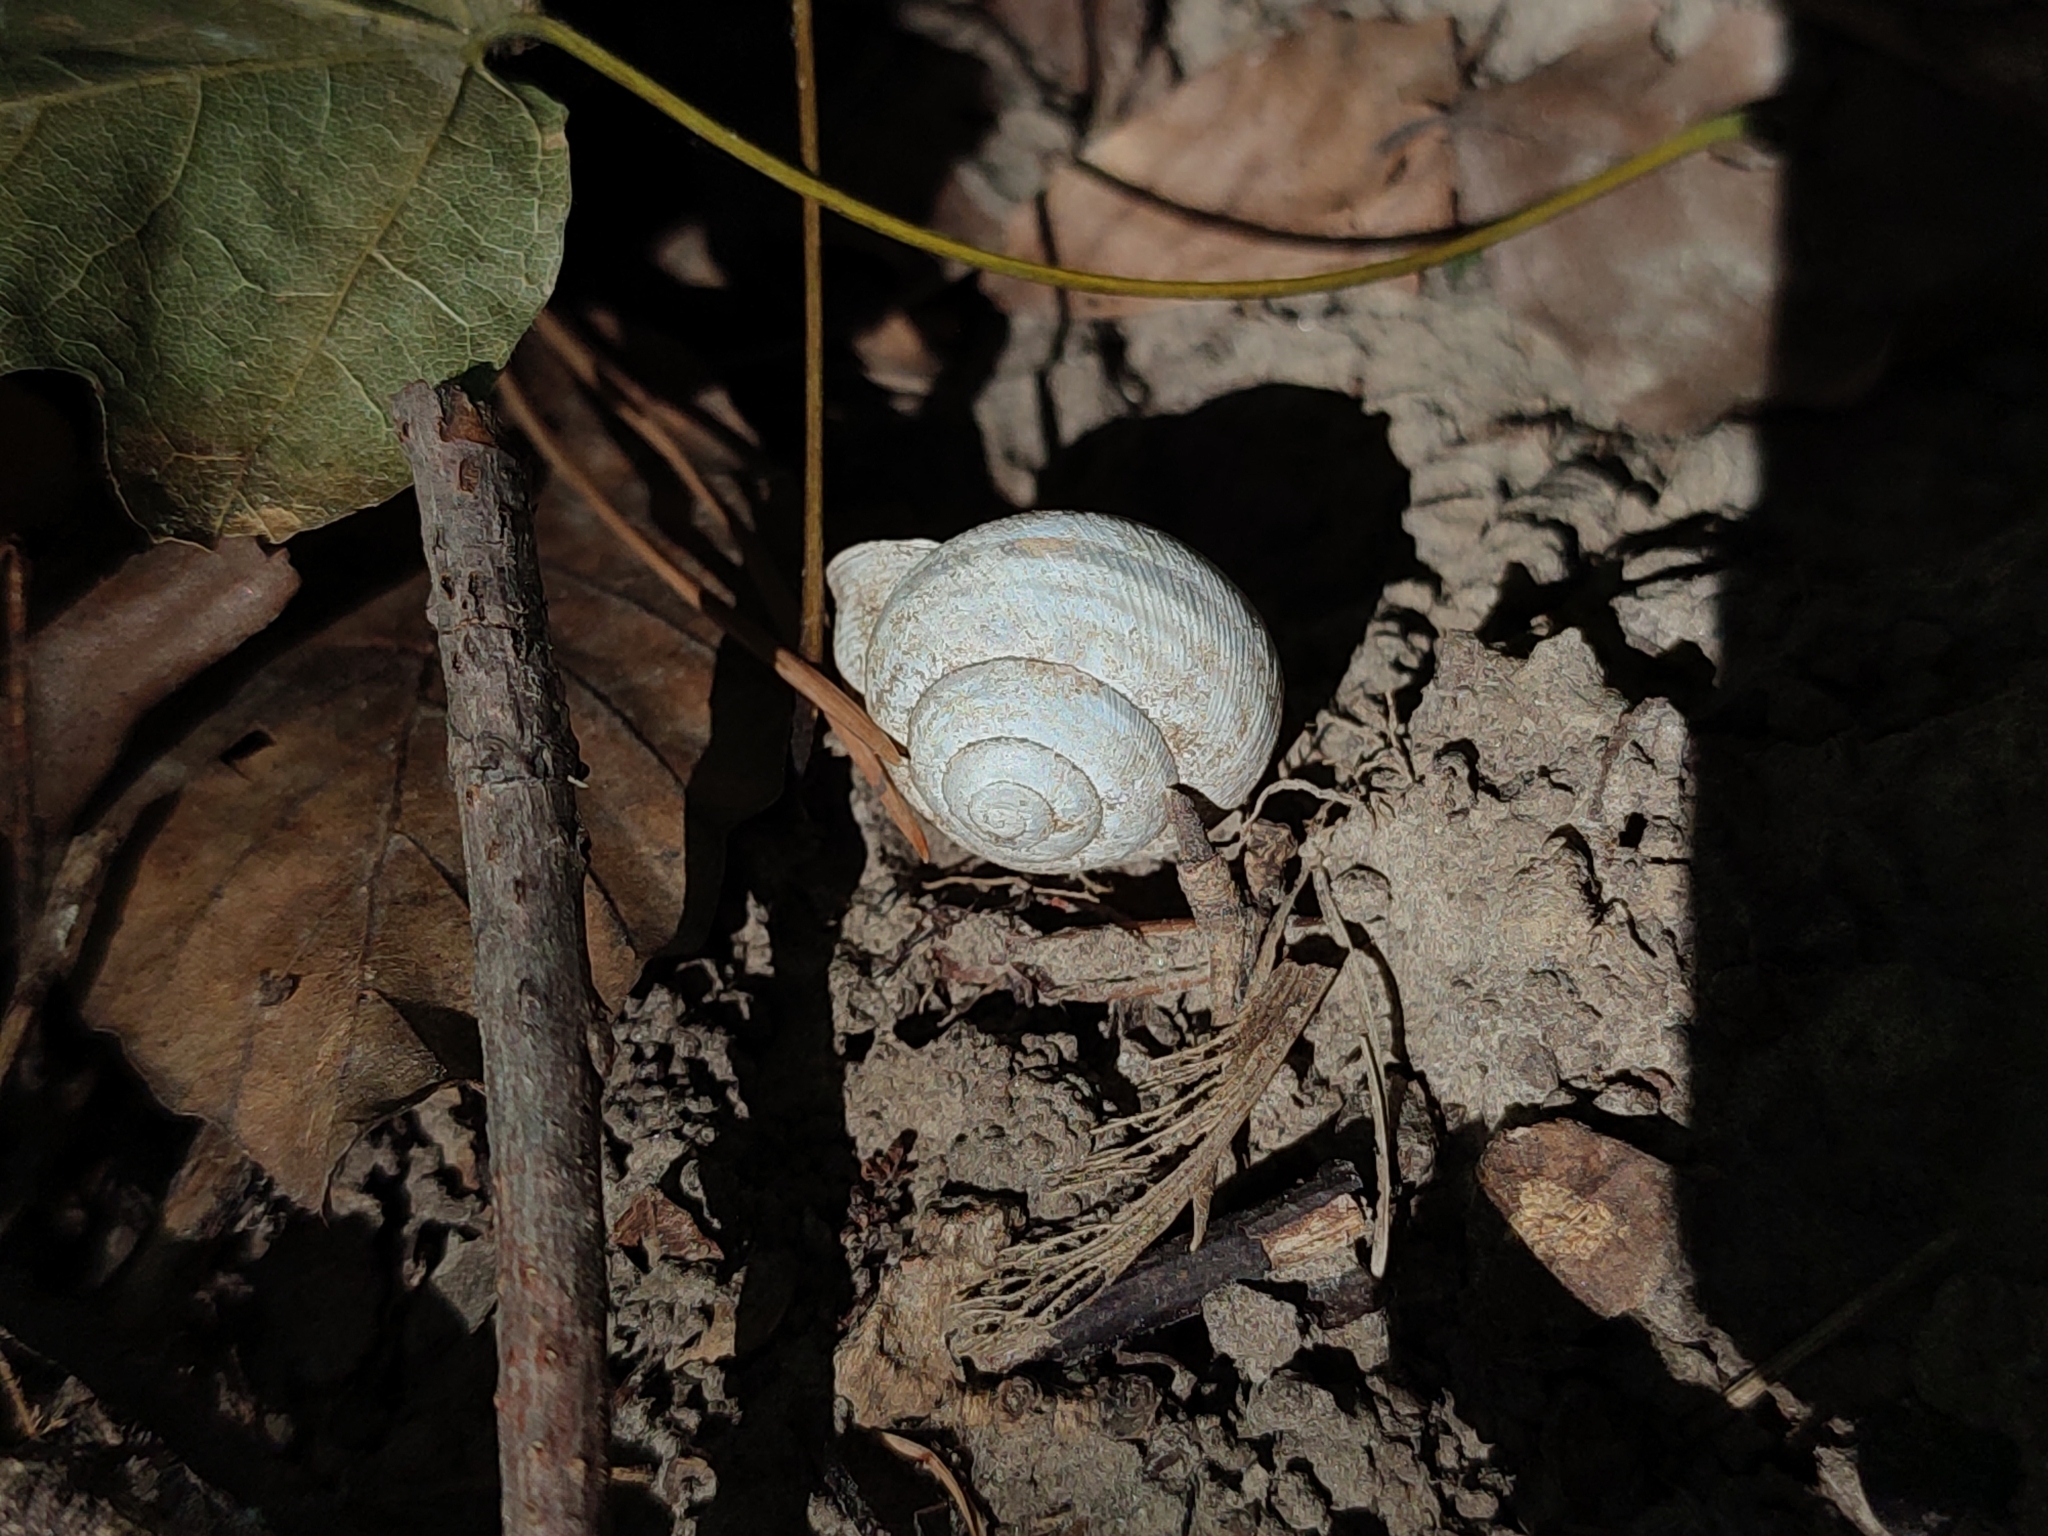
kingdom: Animalia
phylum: Mollusca
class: Gastropoda
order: Stylommatophora
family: Helicidae
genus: Caucasotachea
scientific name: Caucasotachea vindobonensis
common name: European helicid land snail
